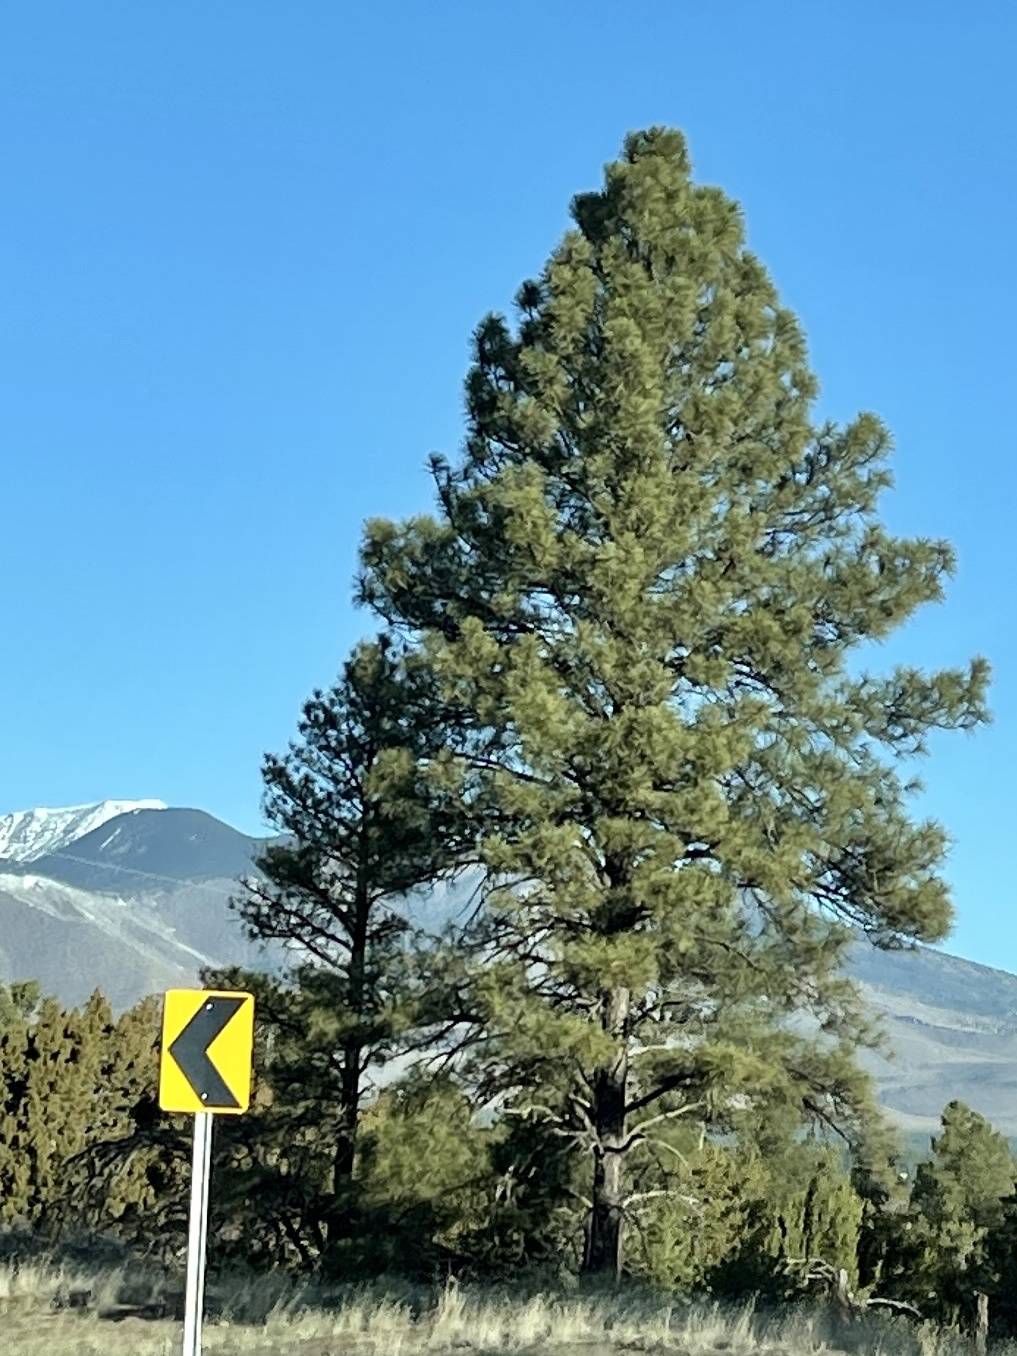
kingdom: Plantae
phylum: Tracheophyta
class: Pinopsida
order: Pinales
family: Pinaceae
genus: Pinus
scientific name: Pinus ponderosa
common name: Western yellow-pine
